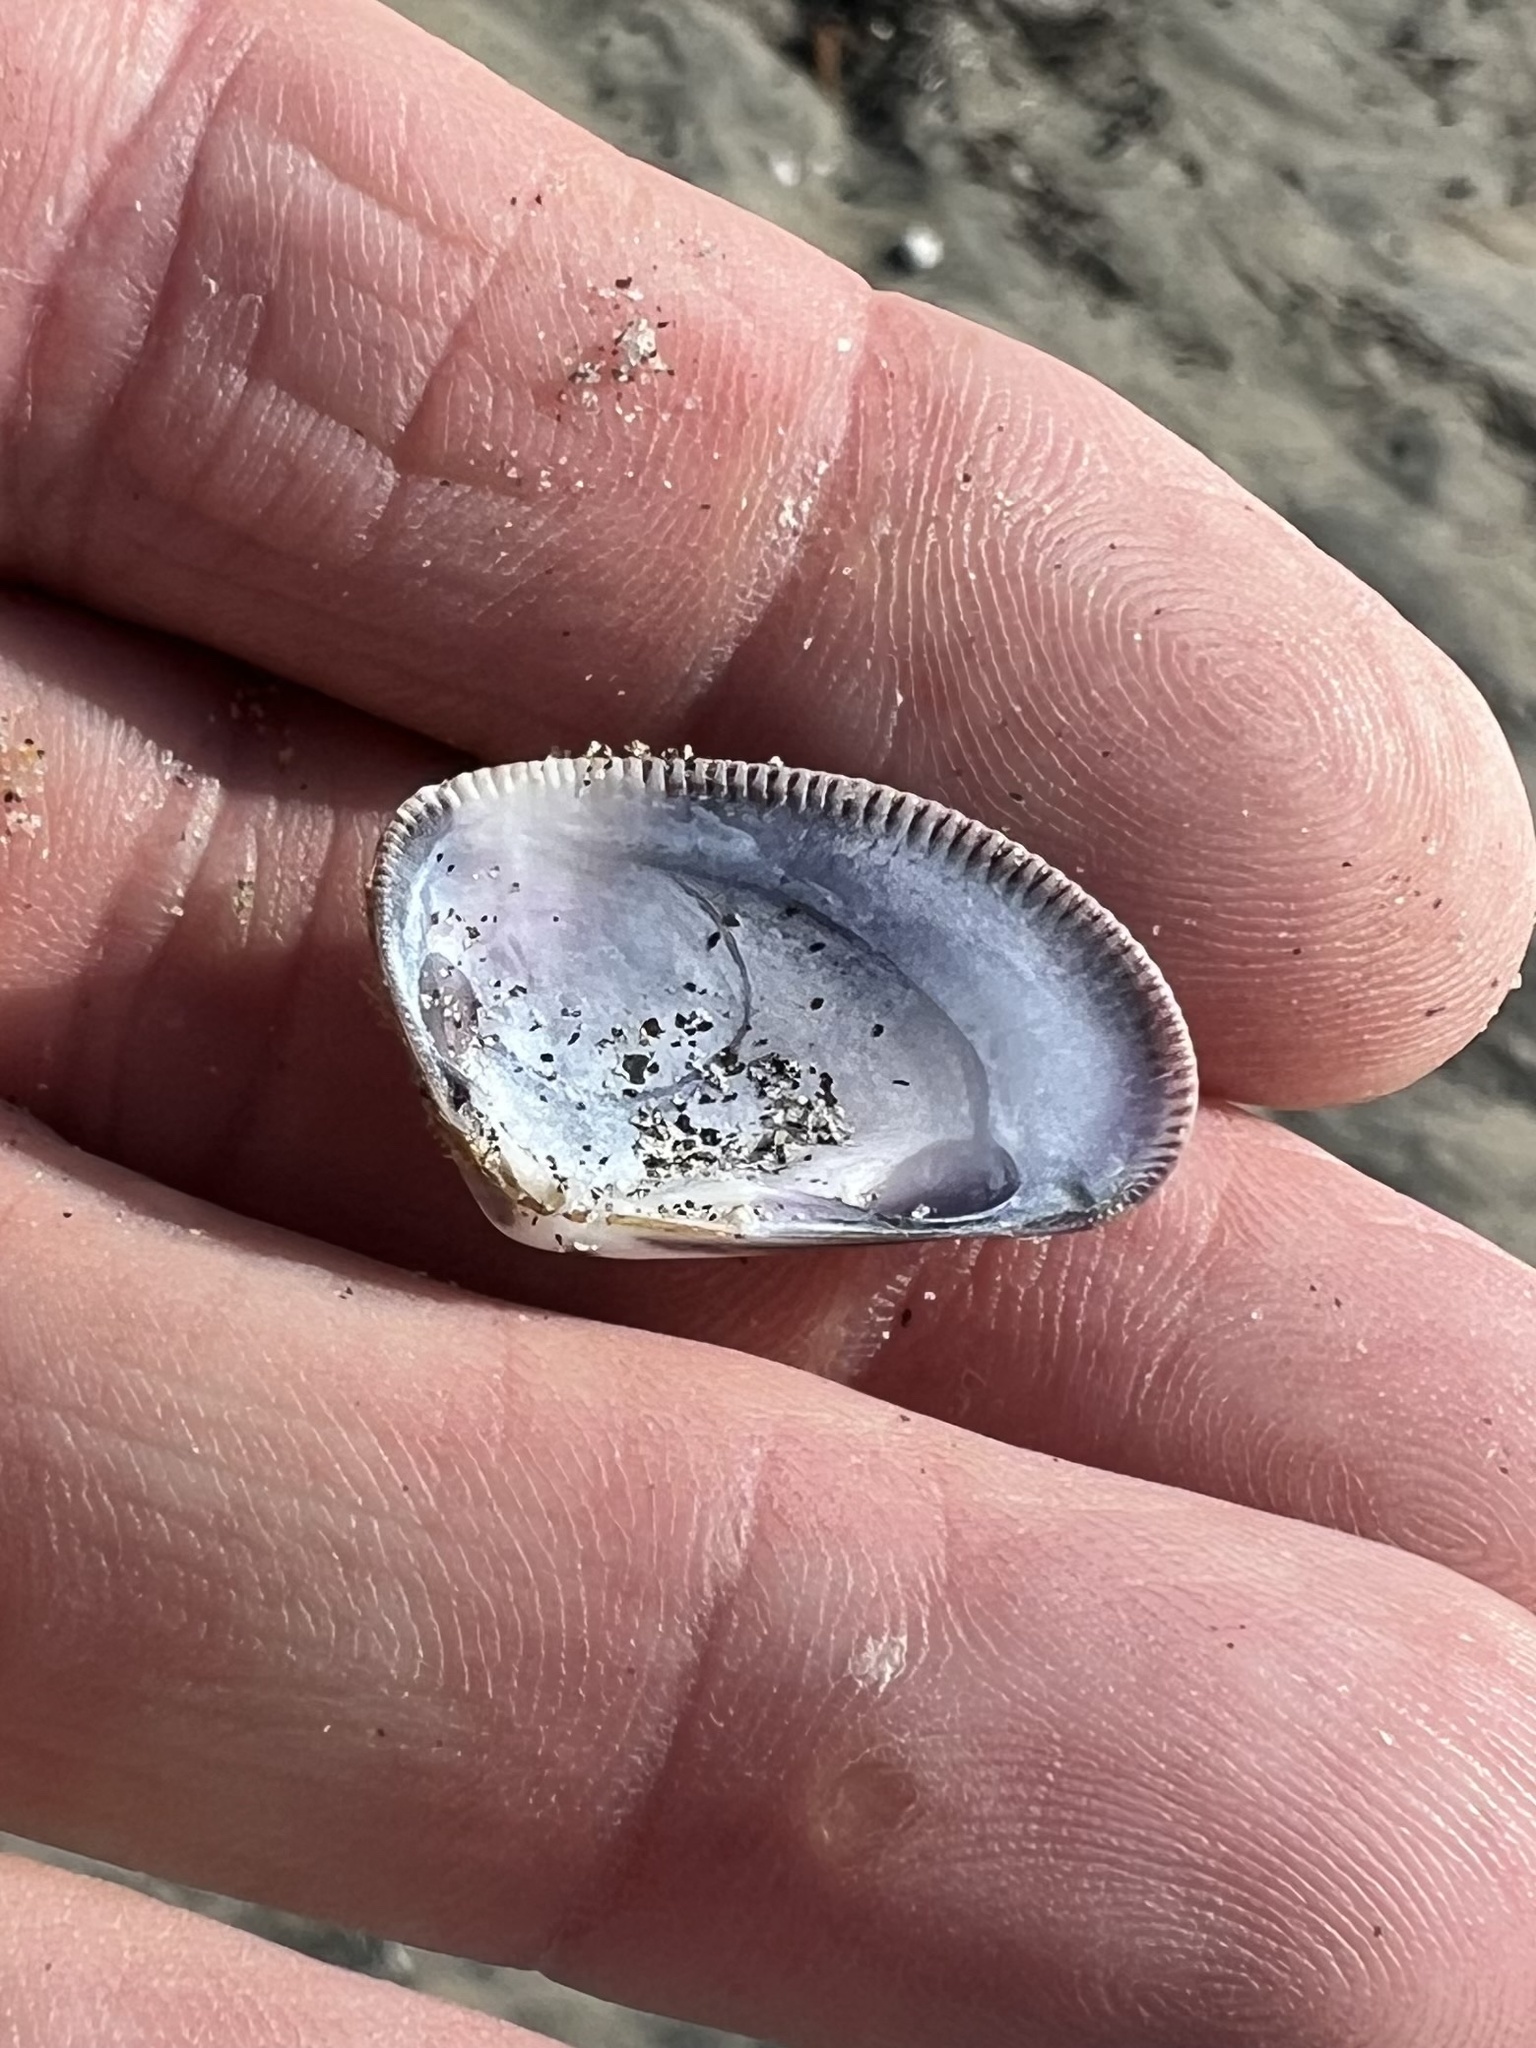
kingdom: Animalia
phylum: Mollusca
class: Bivalvia
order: Cardiida
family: Donacidae
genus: Donax
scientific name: Donax gouldii
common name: Gould beanclam
